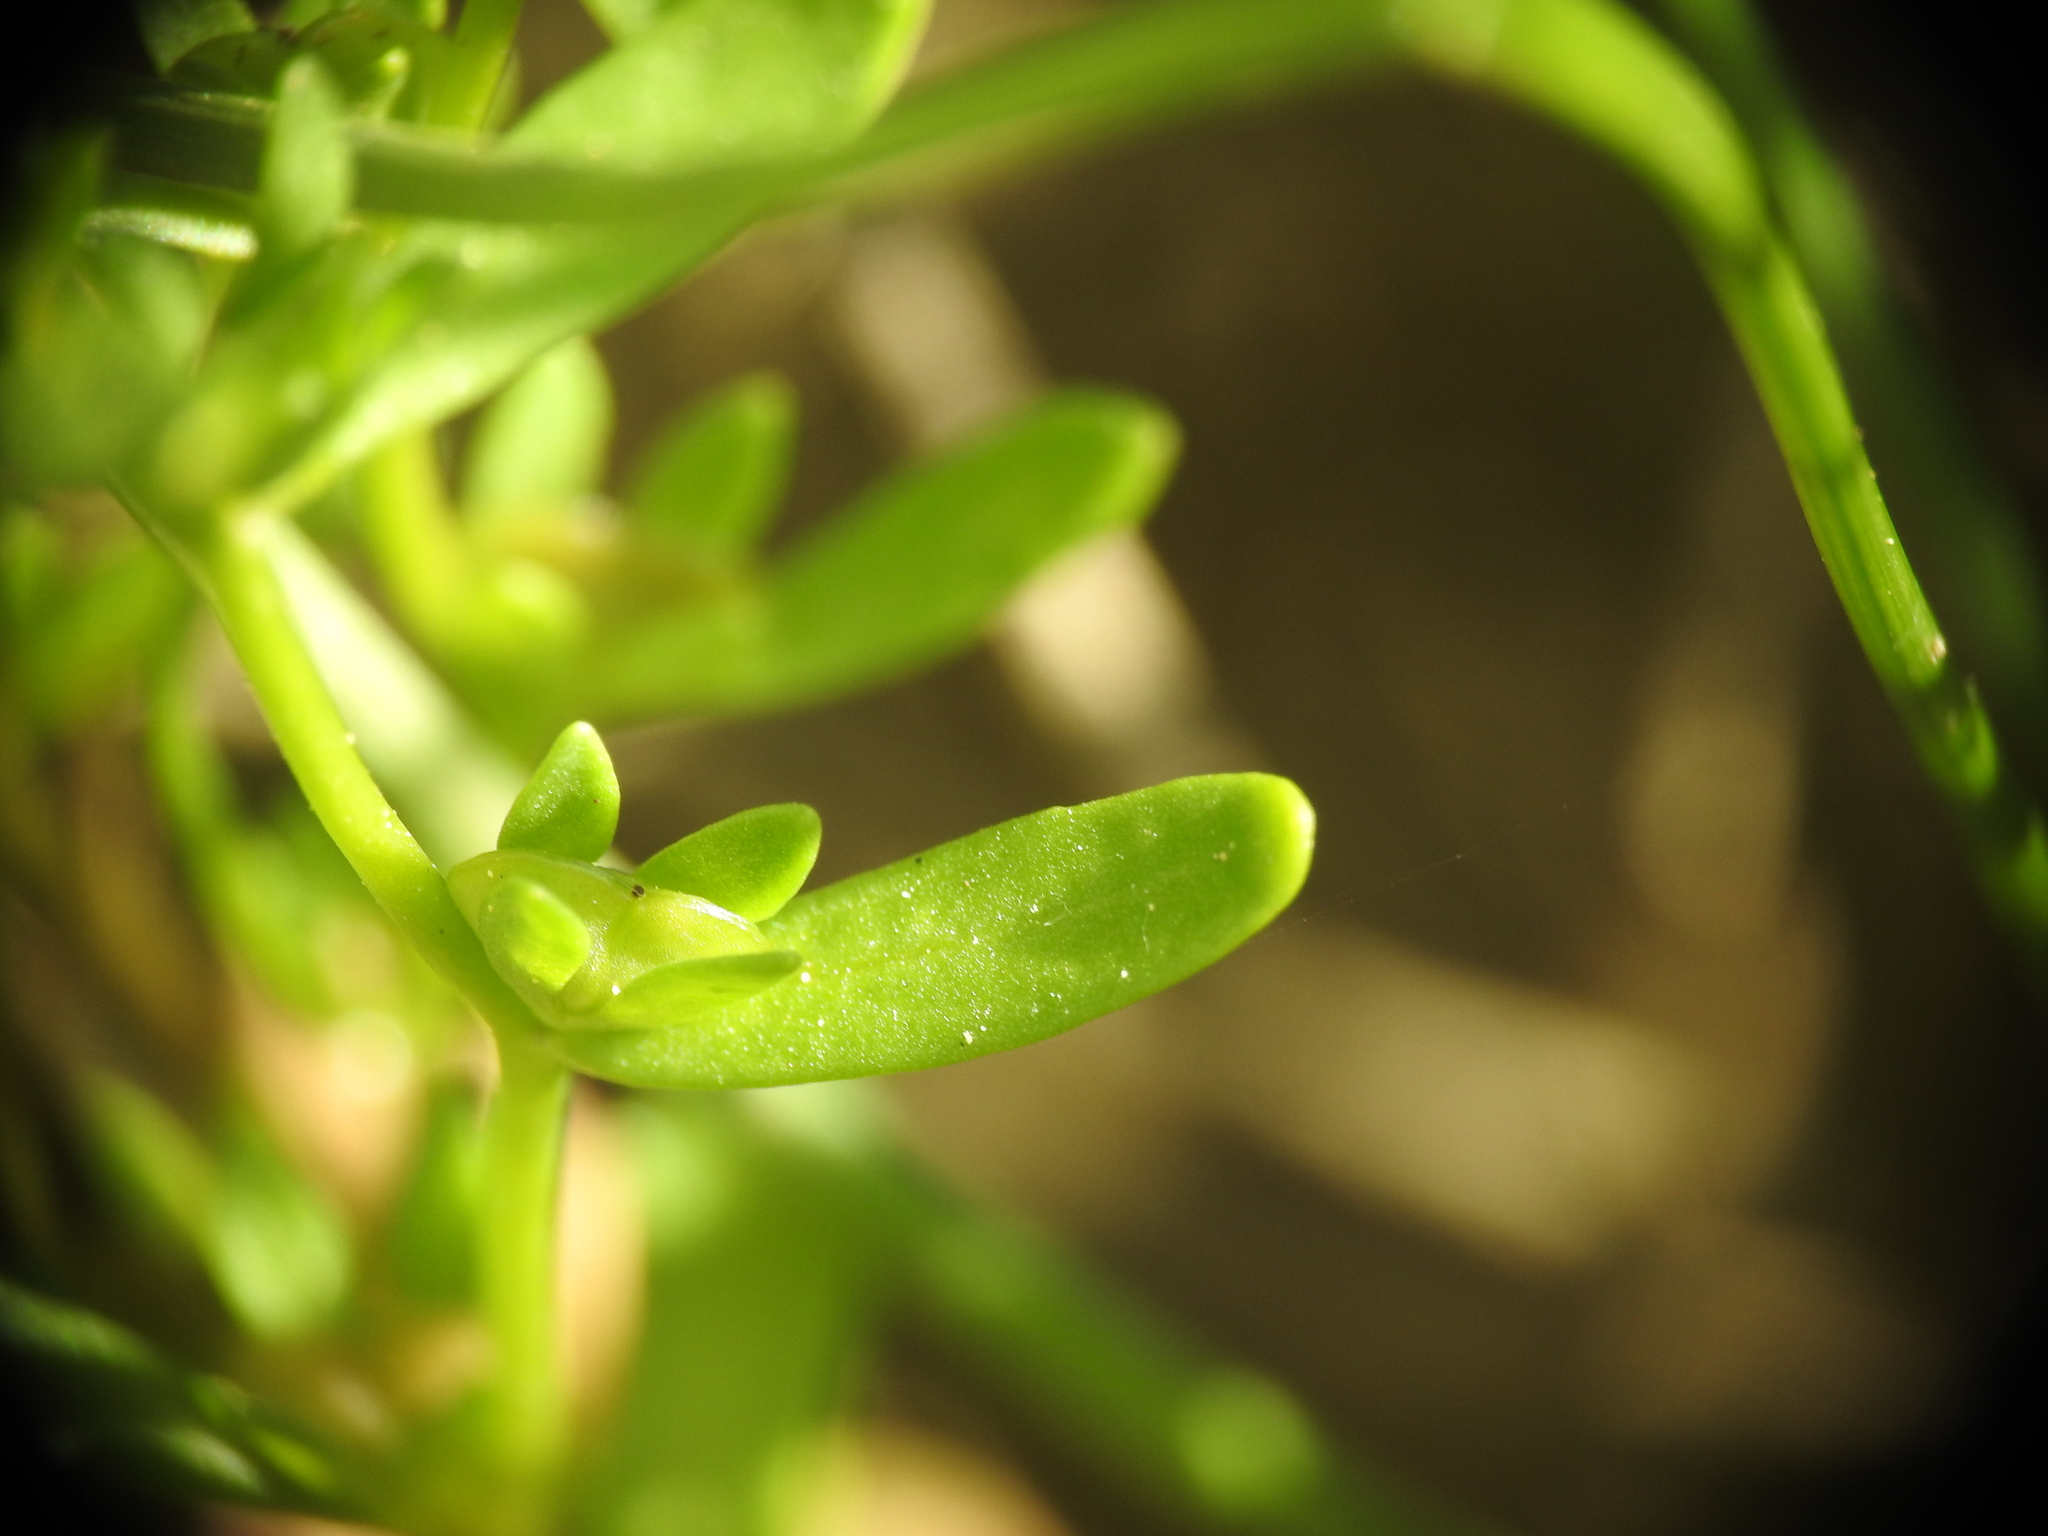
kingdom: Plantae
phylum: Tracheophyta
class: Magnoliopsida
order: Lamiales
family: Plantaginaceae
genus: Veronica
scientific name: Veronica peregrina
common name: Neckweed
